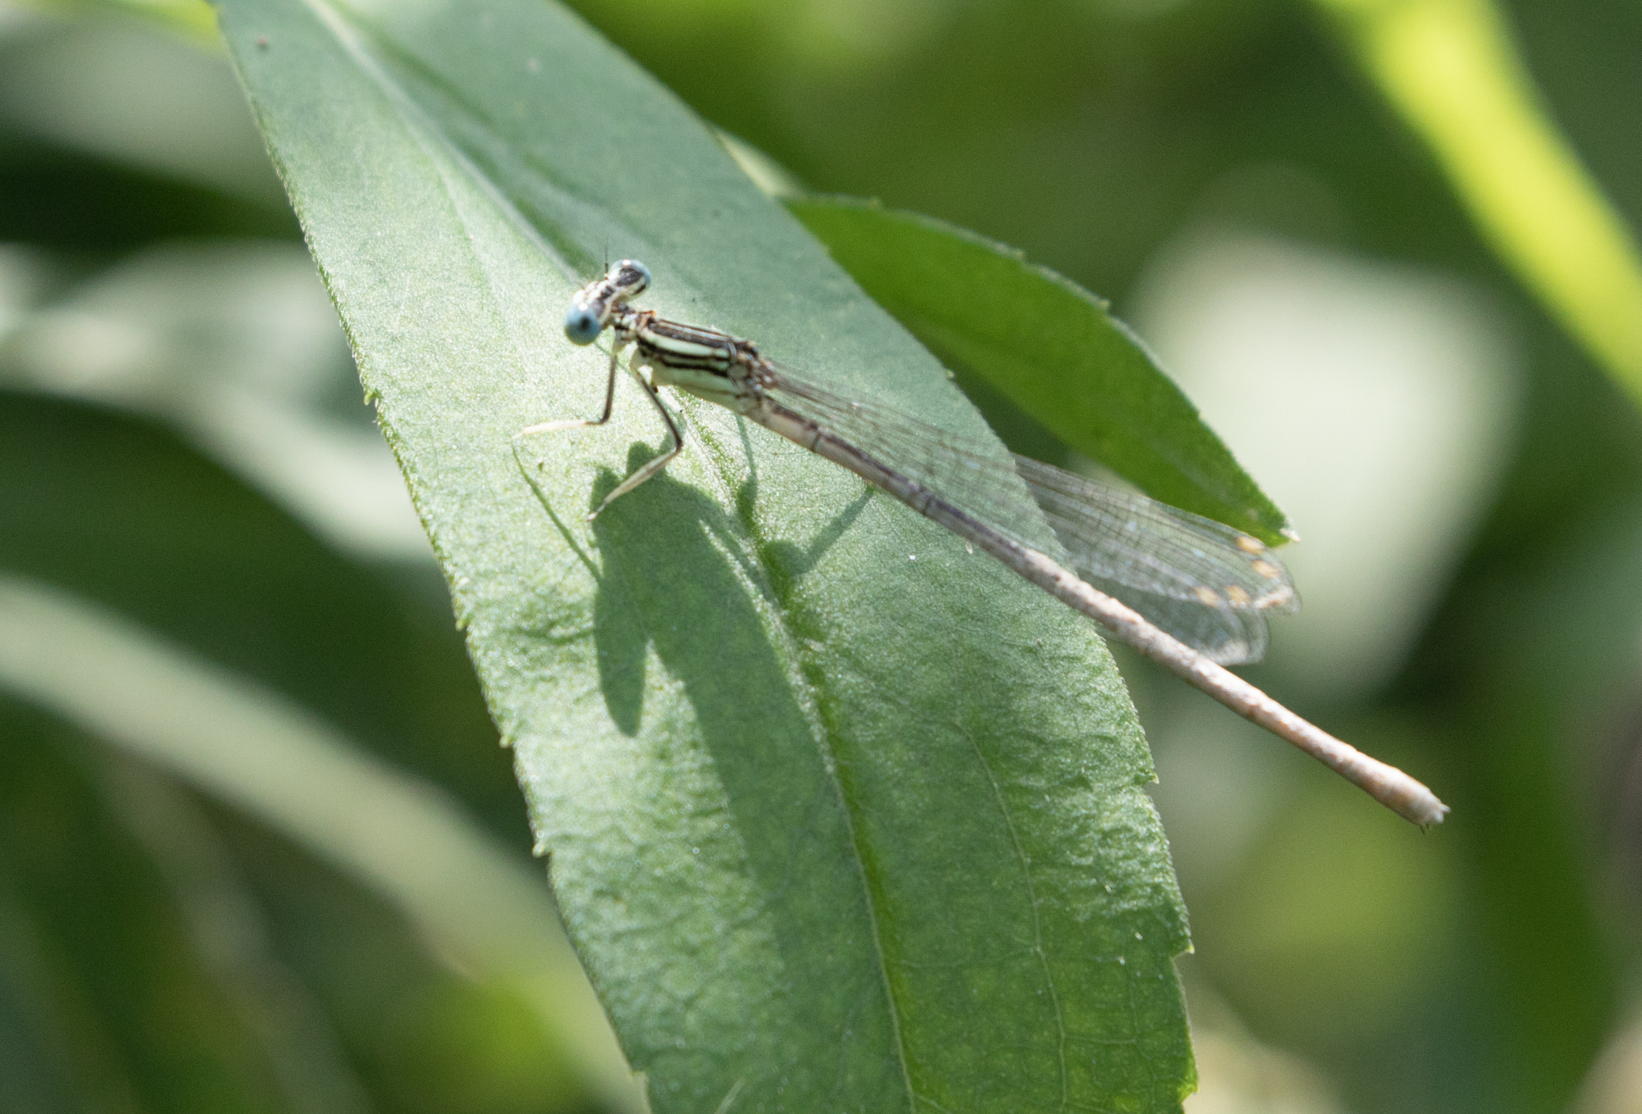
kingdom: Animalia
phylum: Arthropoda
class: Insecta
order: Odonata
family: Platycnemididae
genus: Platycnemis
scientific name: Platycnemis pennipes
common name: White-legged damselfly
